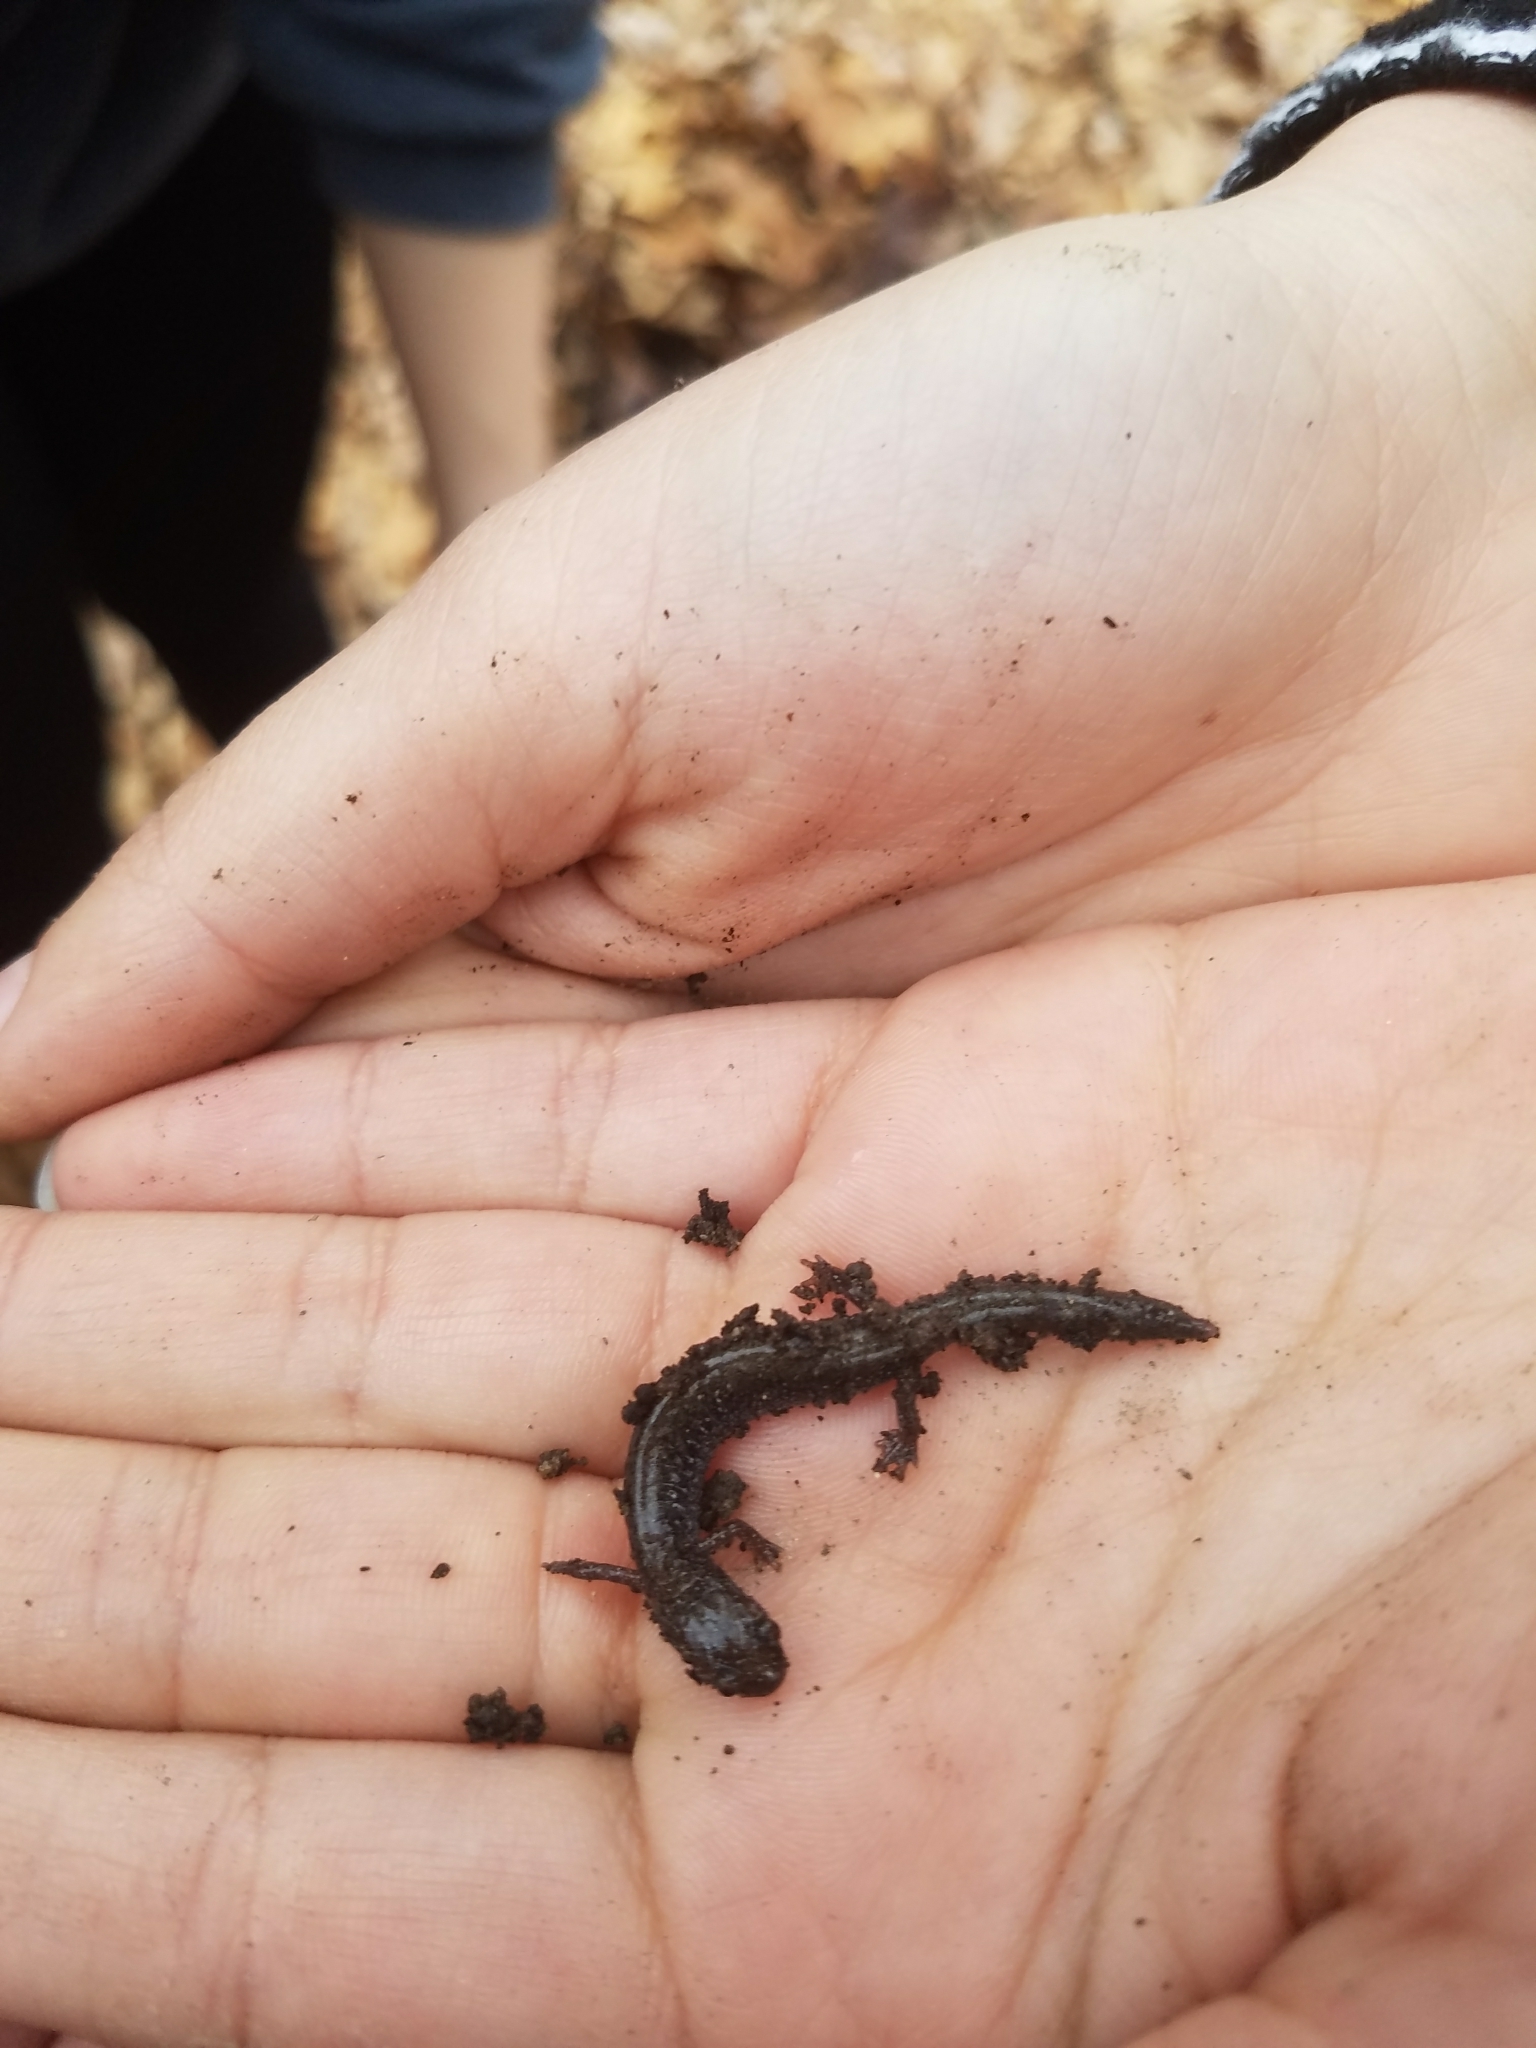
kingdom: Animalia
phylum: Chordata
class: Amphibia
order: Caudata
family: Plethodontidae
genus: Plethodon
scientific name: Plethodon cinereus
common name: Redback salamander
